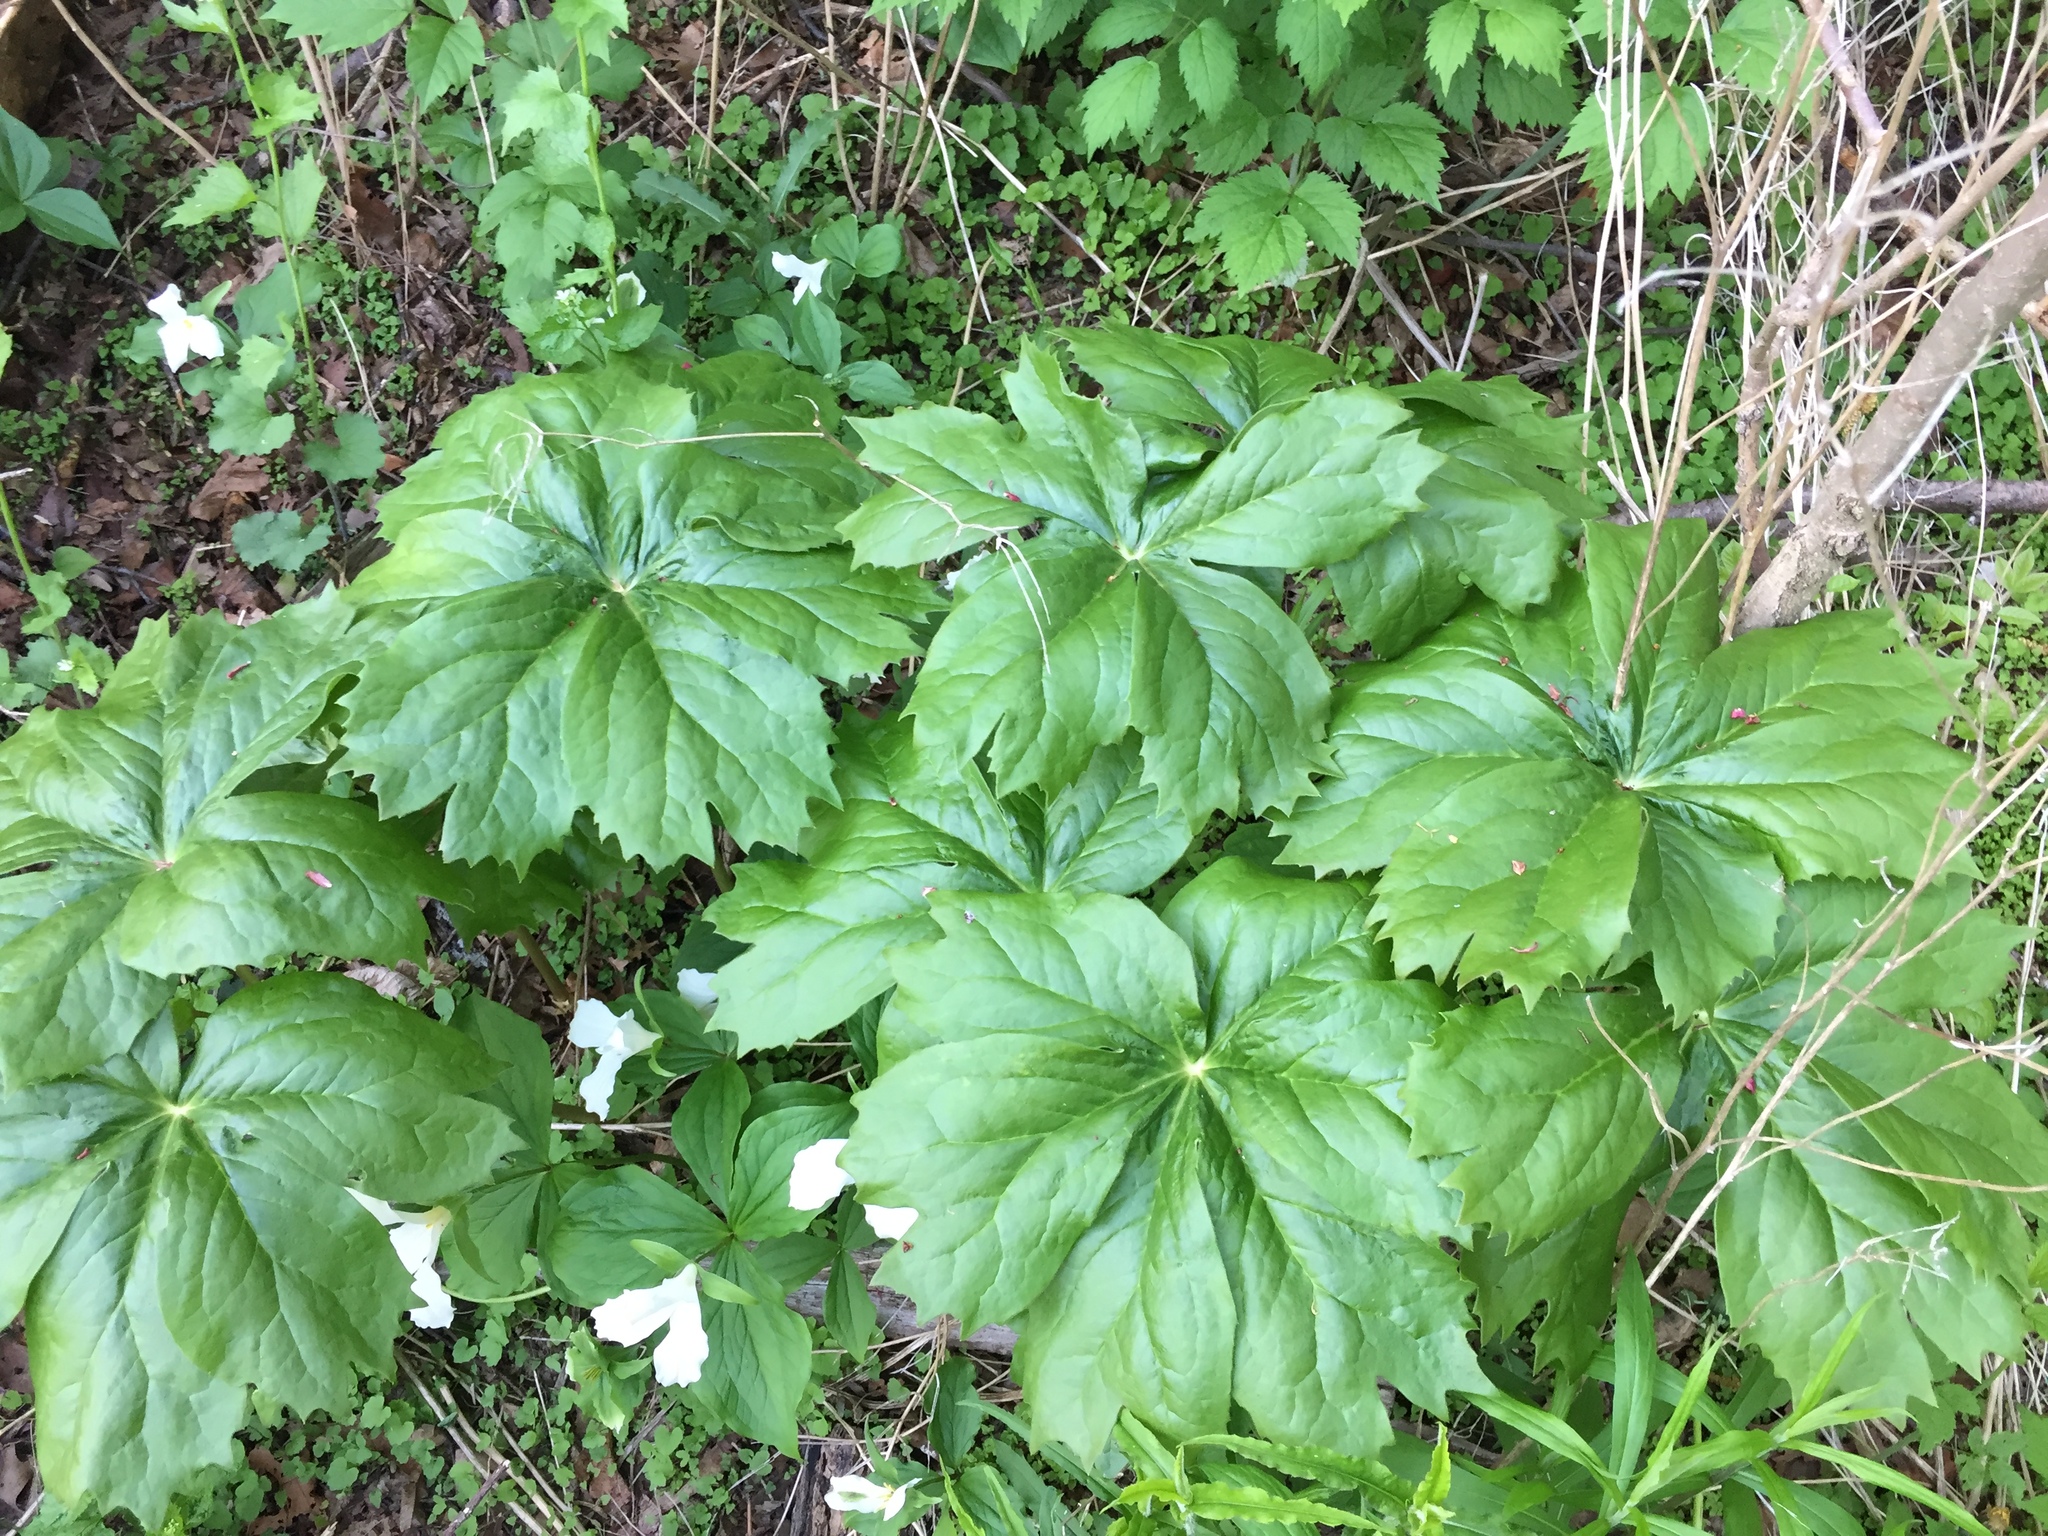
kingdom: Plantae
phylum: Tracheophyta
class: Magnoliopsida
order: Ranunculales
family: Berberidaceae
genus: Podophyllum
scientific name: Podophyllum peltatum
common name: Wild mandrake
